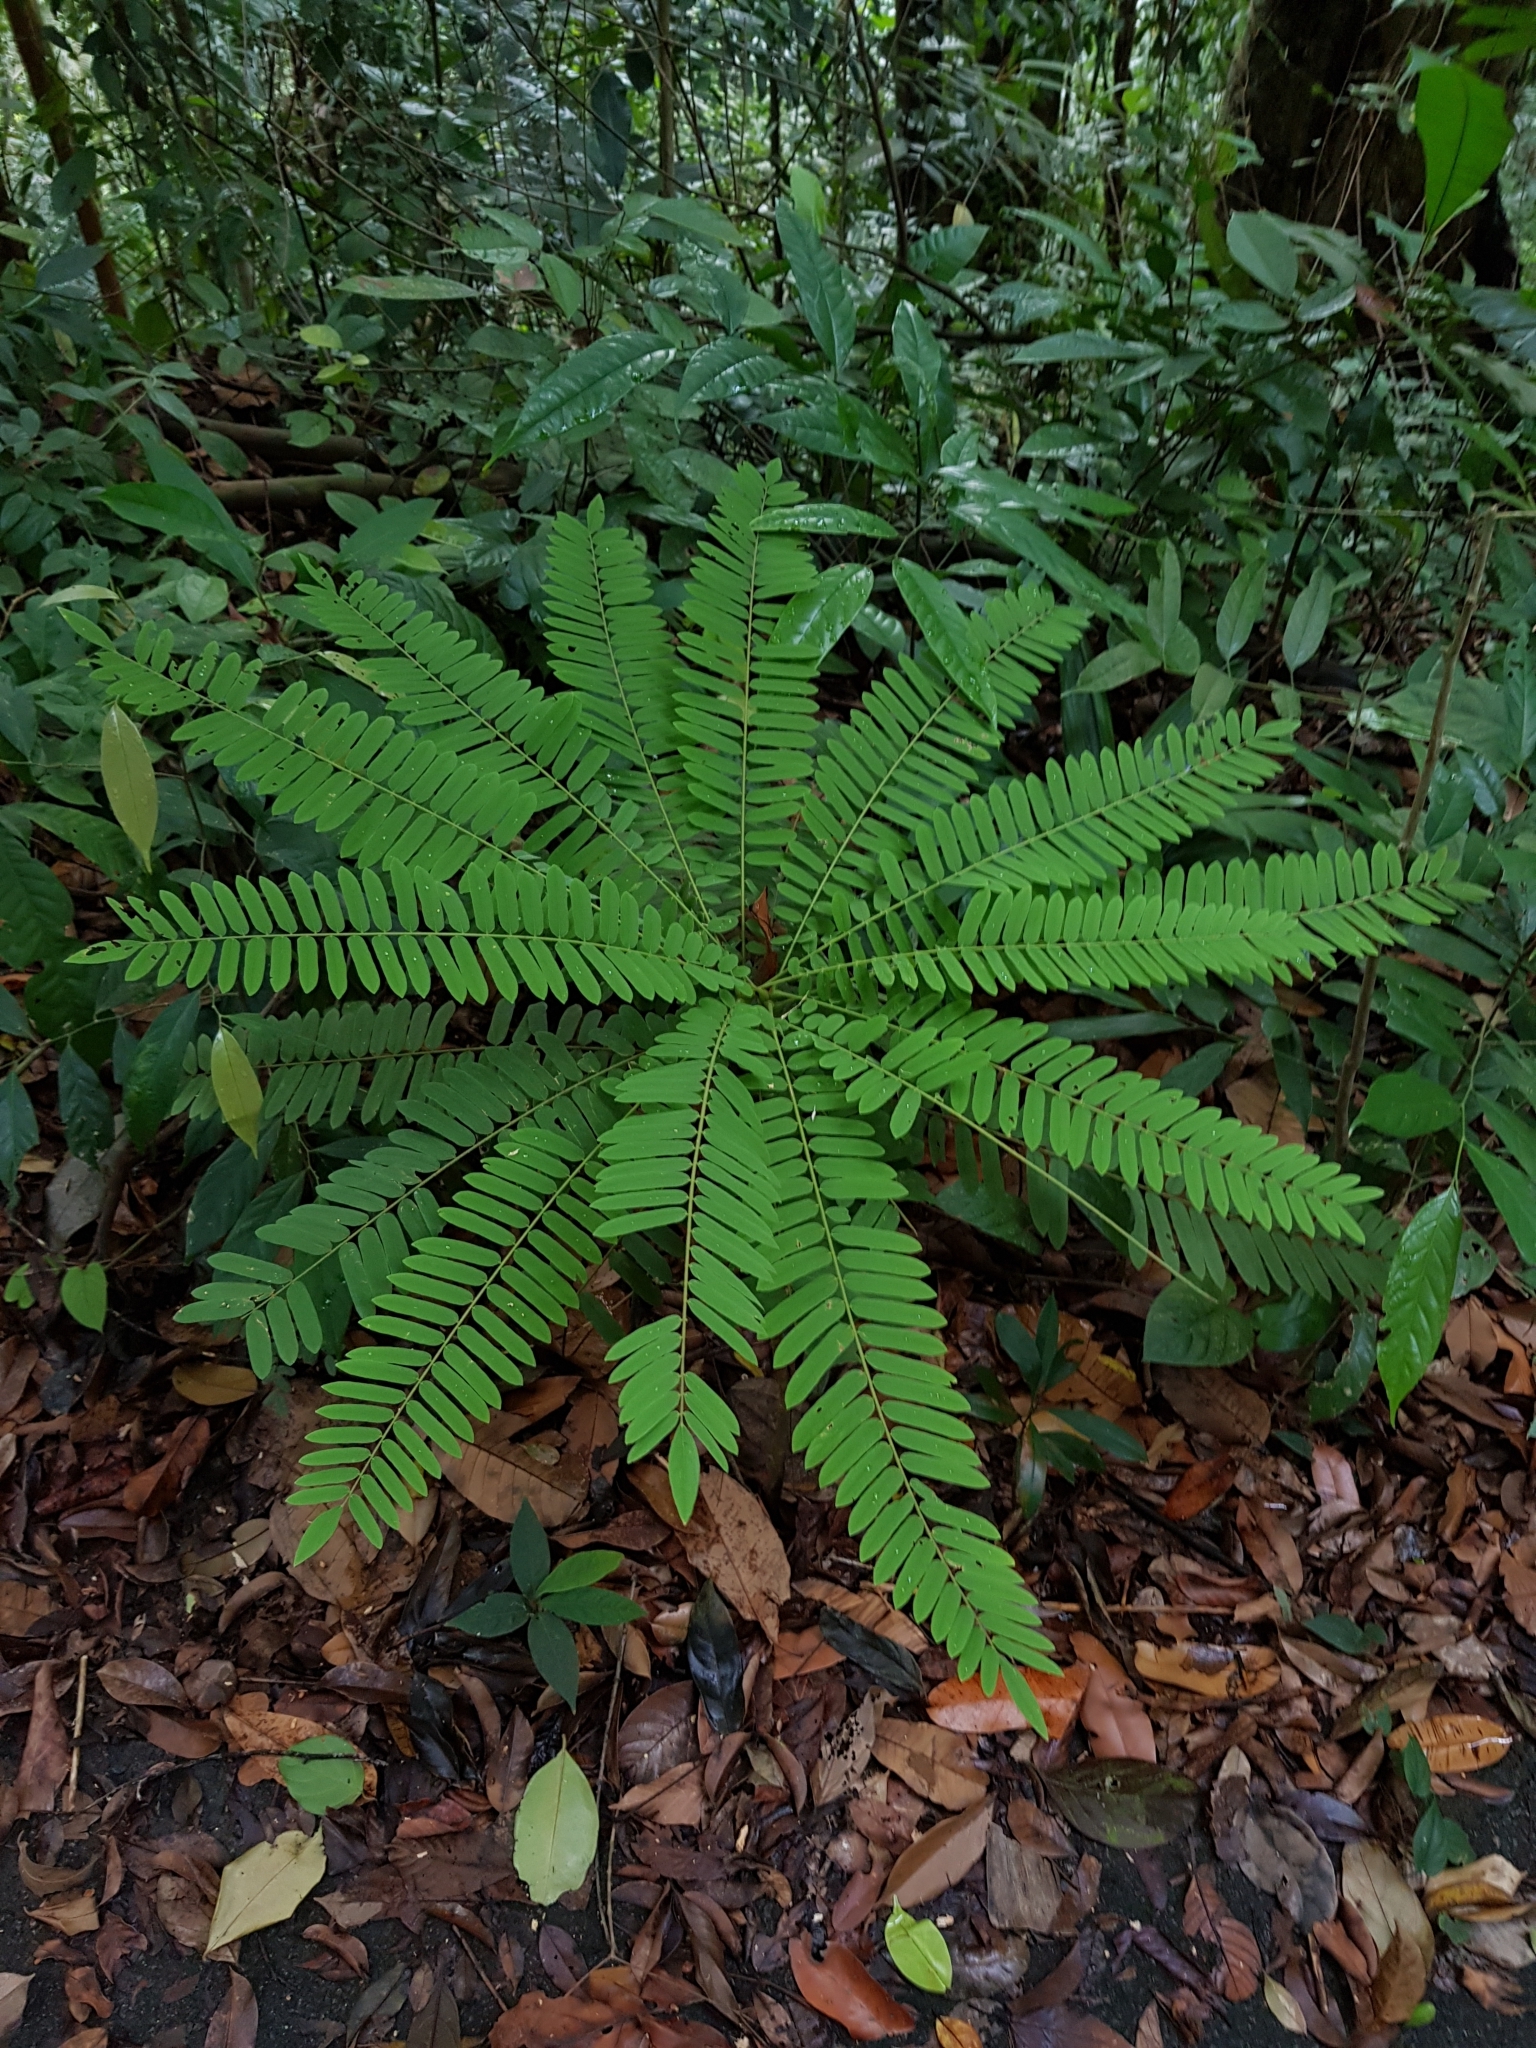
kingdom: Plantae
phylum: Tracheophyta
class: Magnoliopsida
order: Oxalidales
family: Connaraceae
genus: Cnestis
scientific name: Cnestis palala
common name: Stinging-hair cnestis
